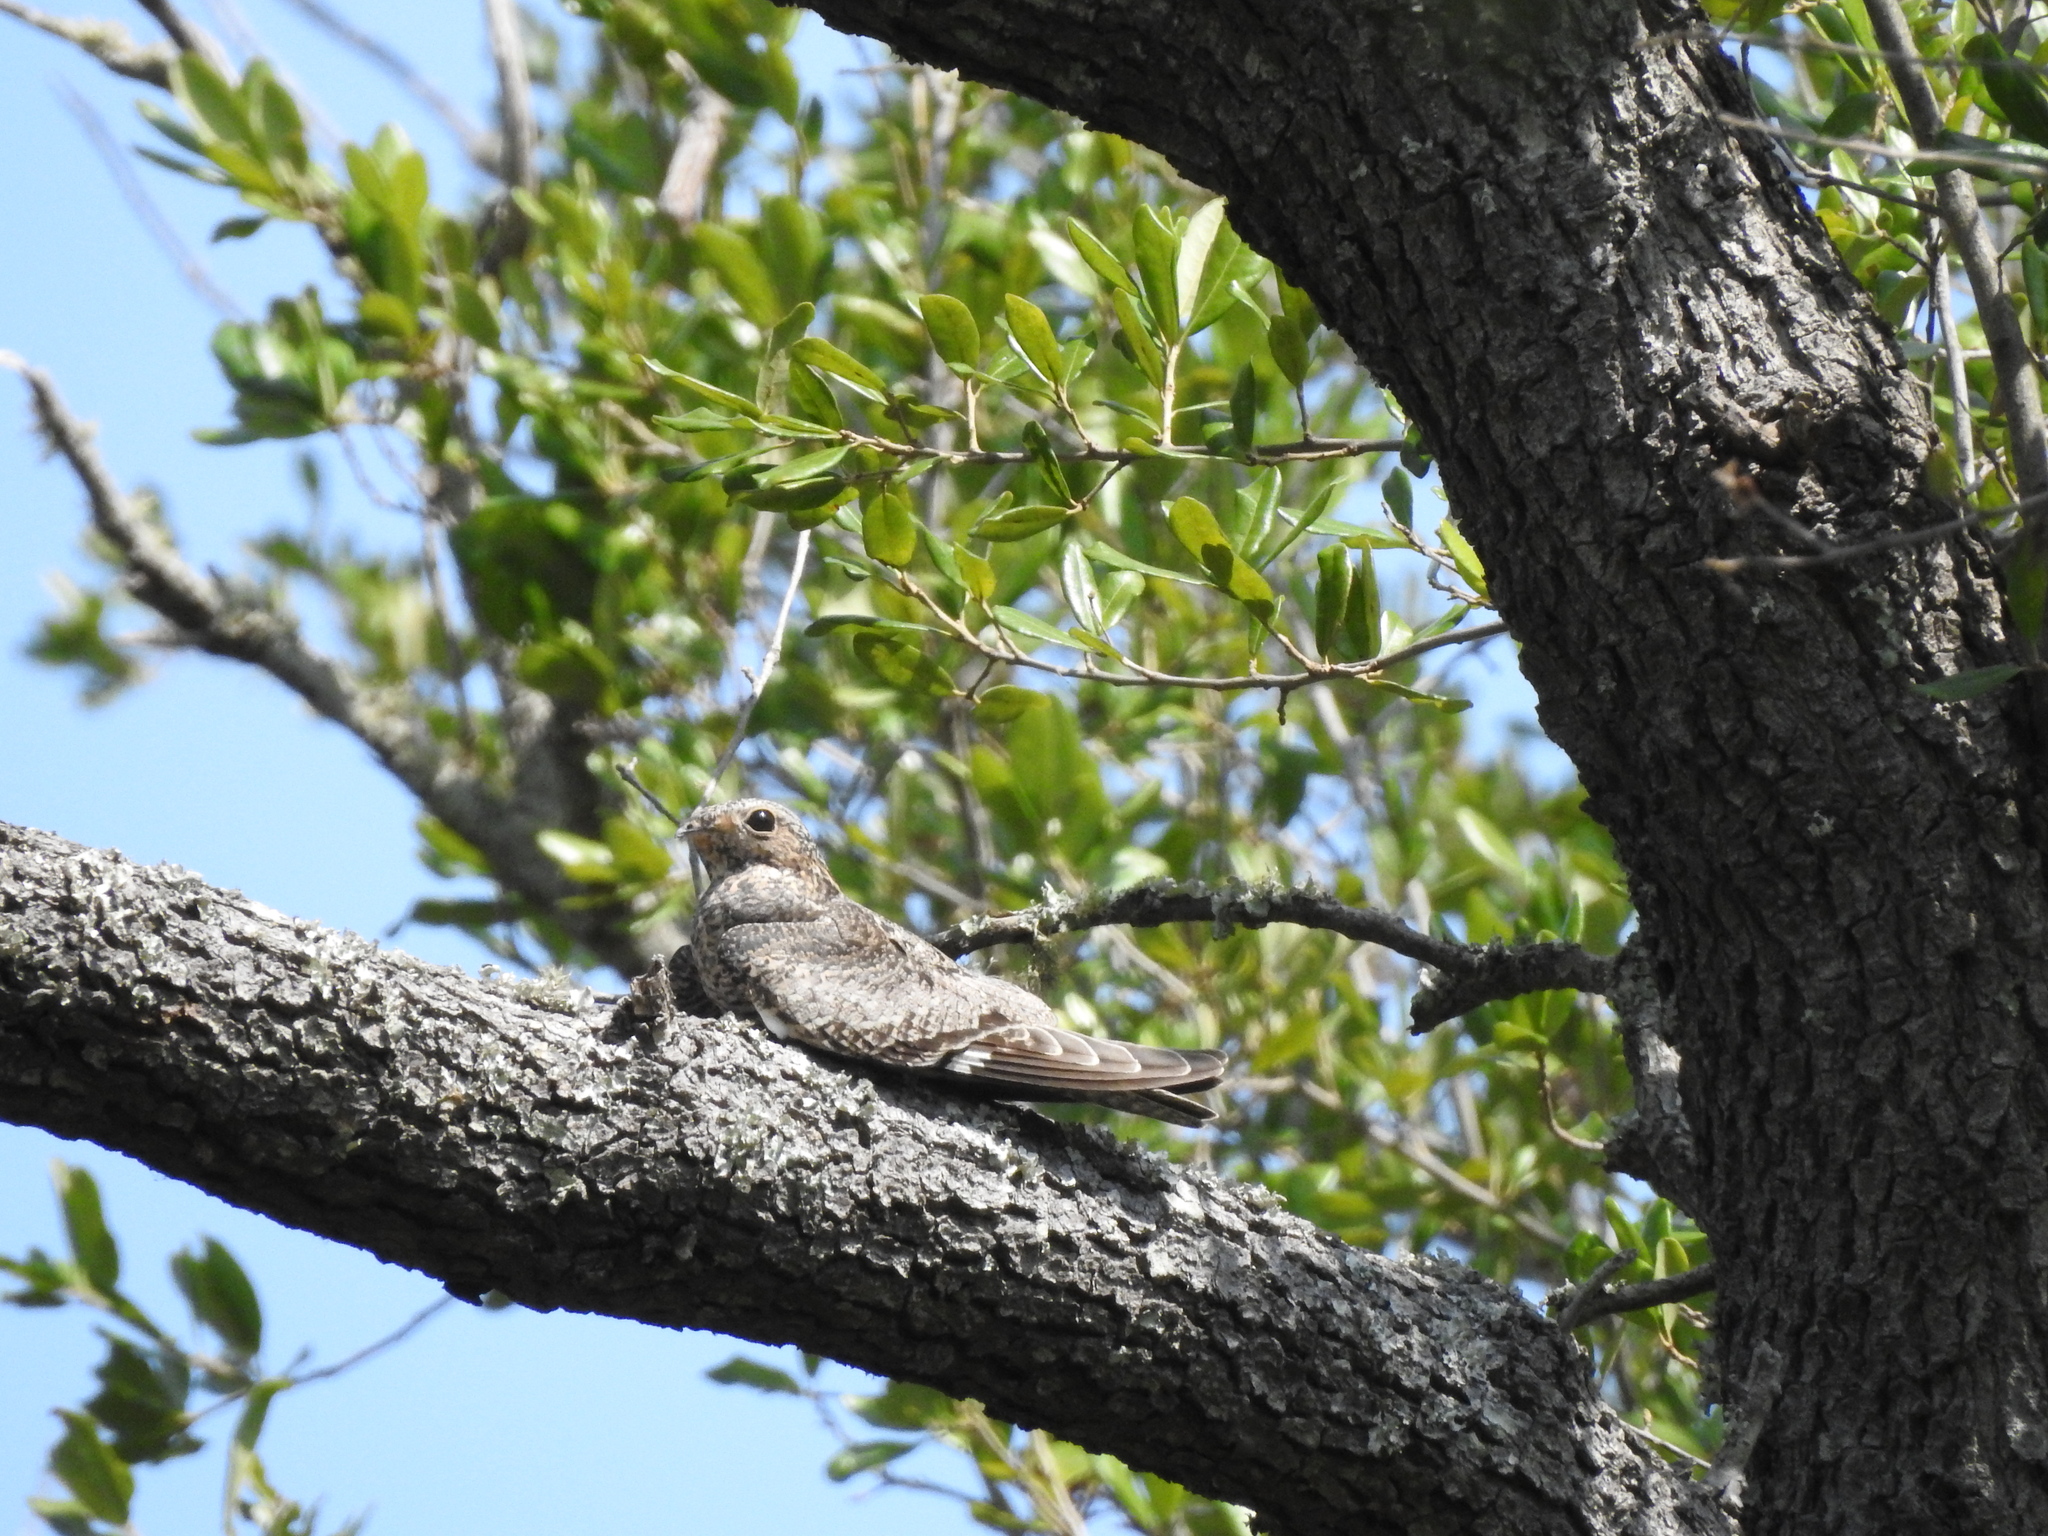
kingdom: Animalia
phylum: Chordata
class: Aves
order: Caprimulgiformes
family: Caprimulgidae
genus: Chordeiles
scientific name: Chordeiles minor
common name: Common nighthawk
